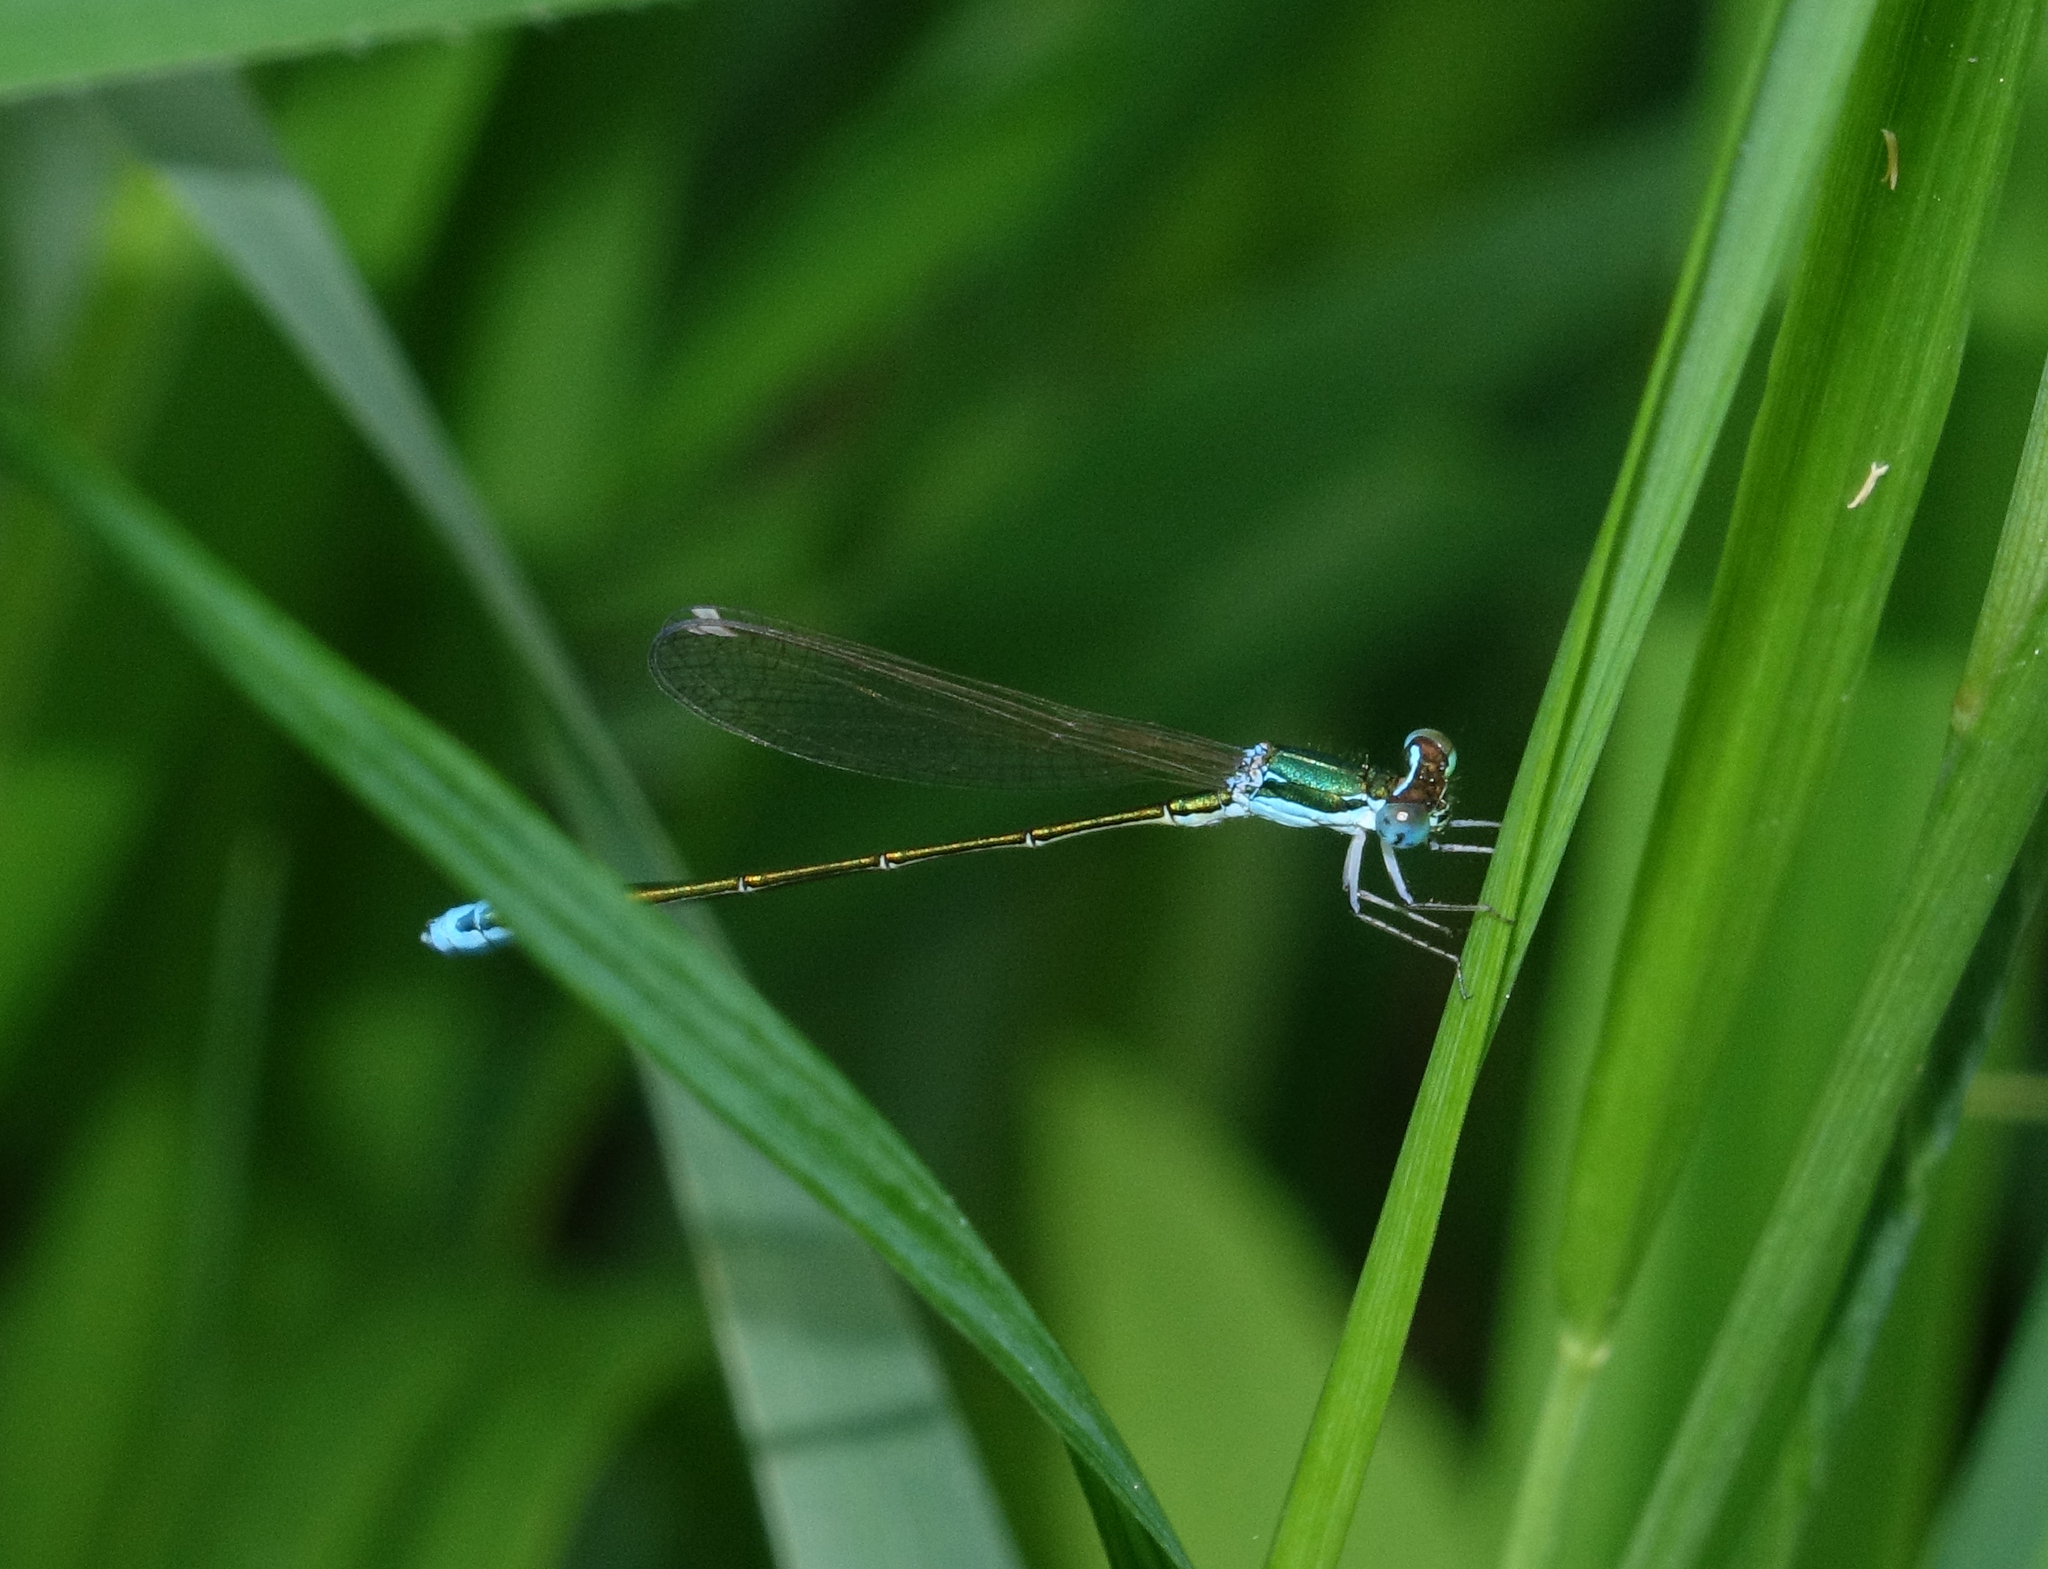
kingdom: Animalia
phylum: Arthropoda
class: Insecta
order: Odonata
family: Coenagrionidae
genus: Nehalennia
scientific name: Nehalennia speciosa
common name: Sedgling
